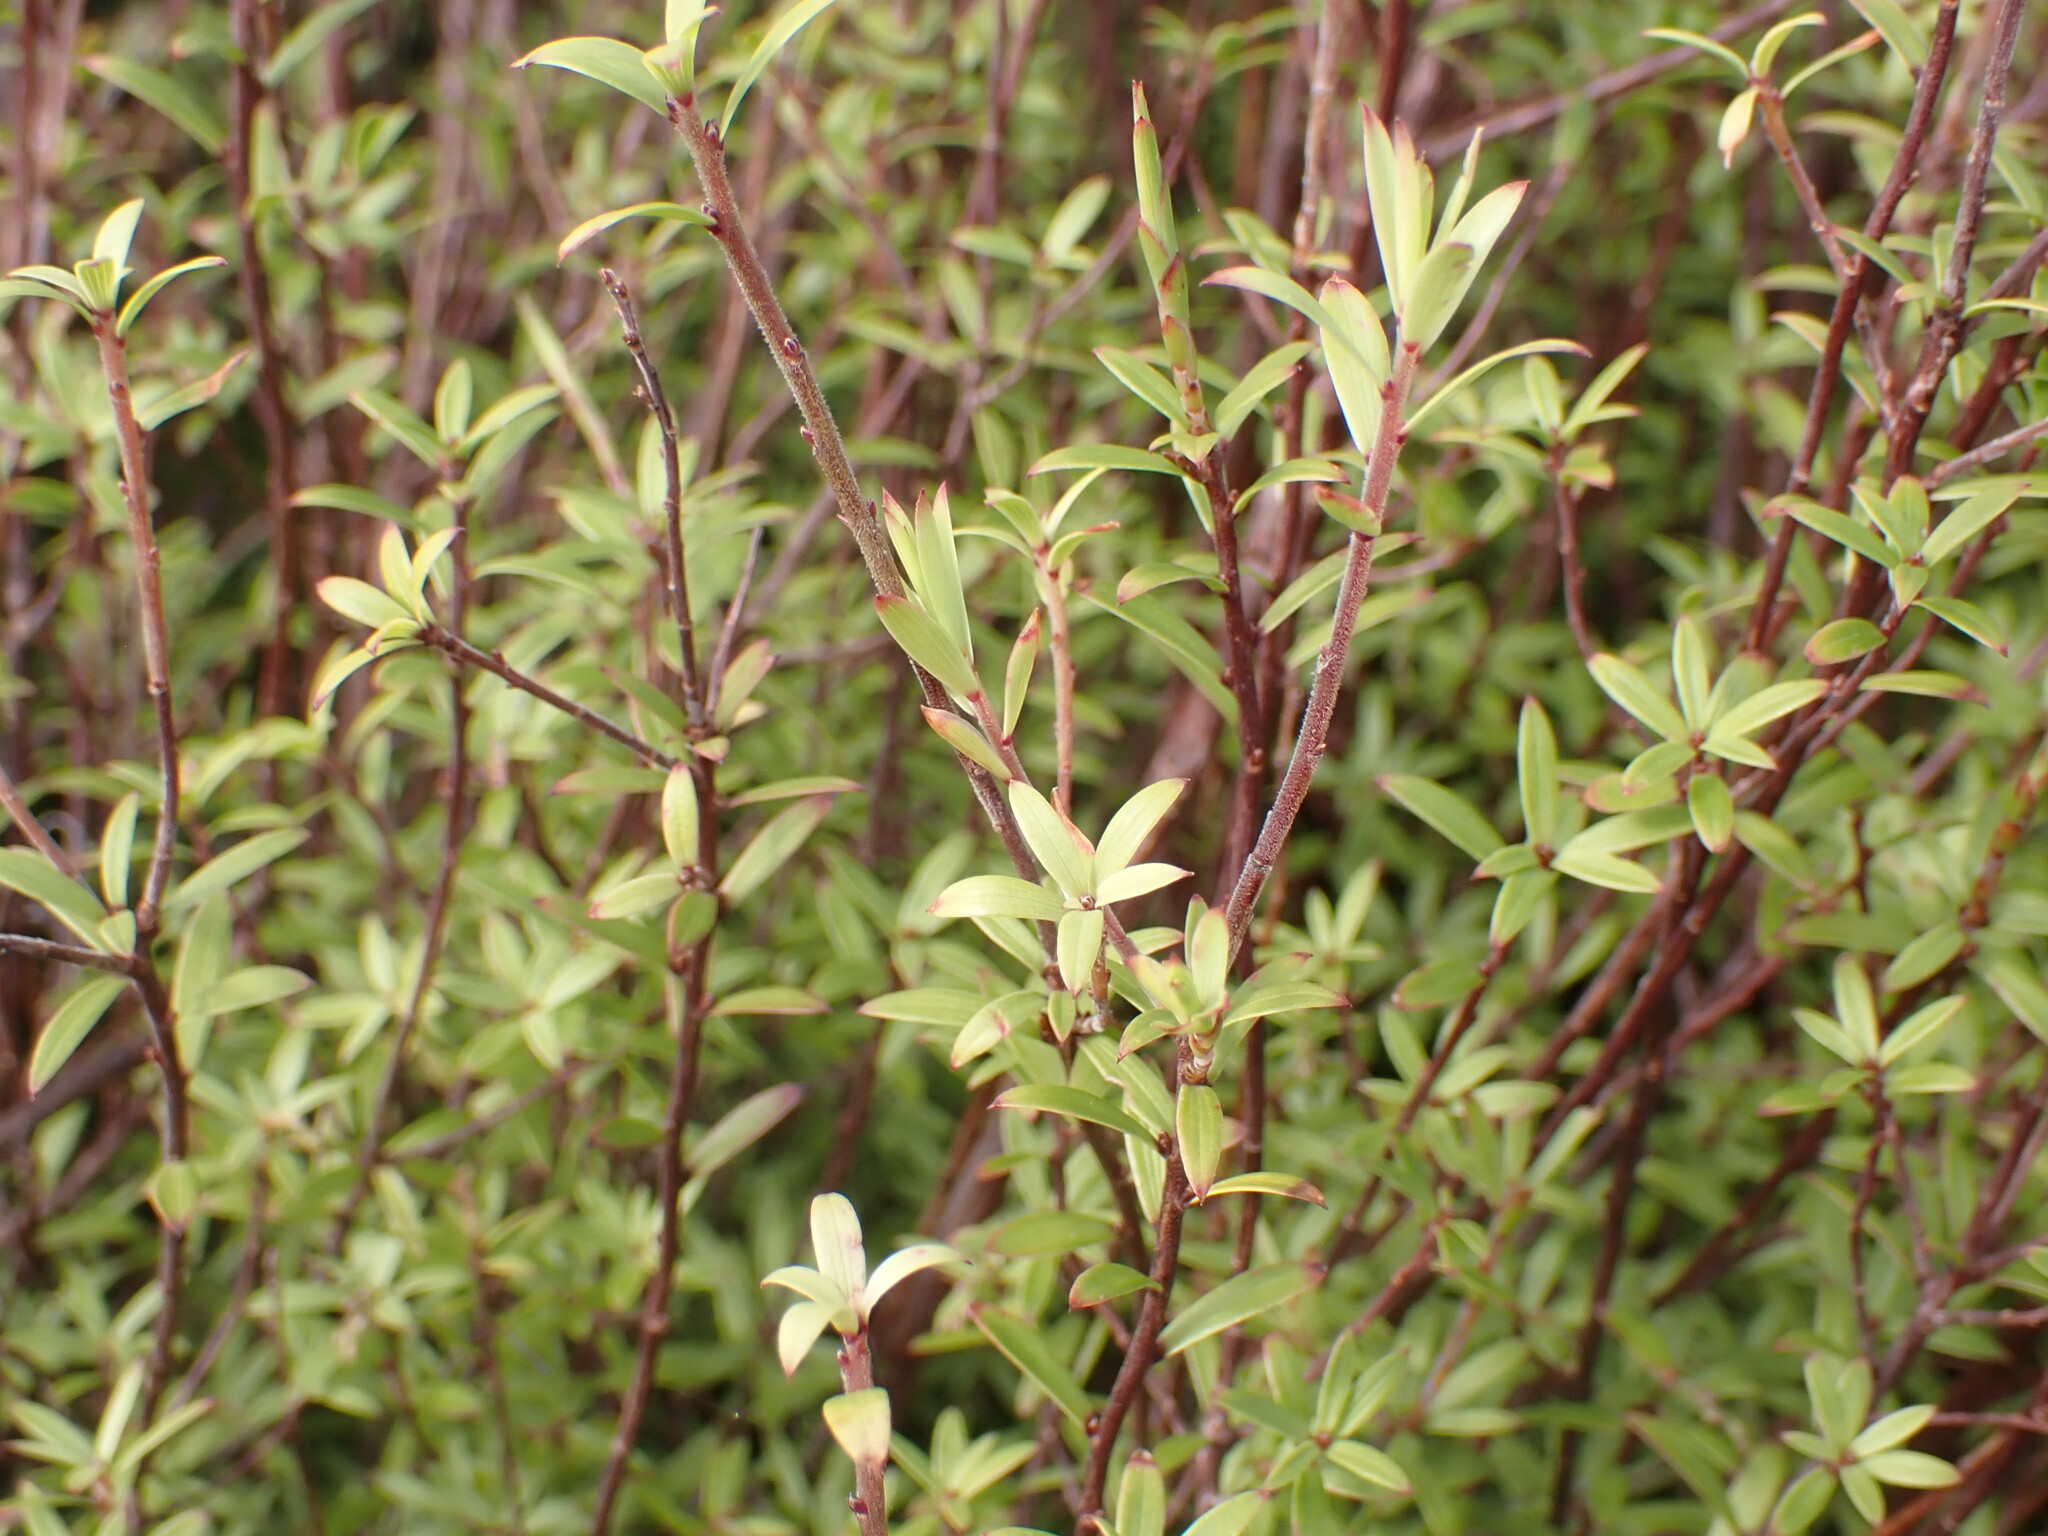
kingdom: Plantae
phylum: Tracheophyta
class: Magnoliopsida
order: Ericales
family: Ericaceae
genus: Leucopogon
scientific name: Leucopogon fasciculatus
